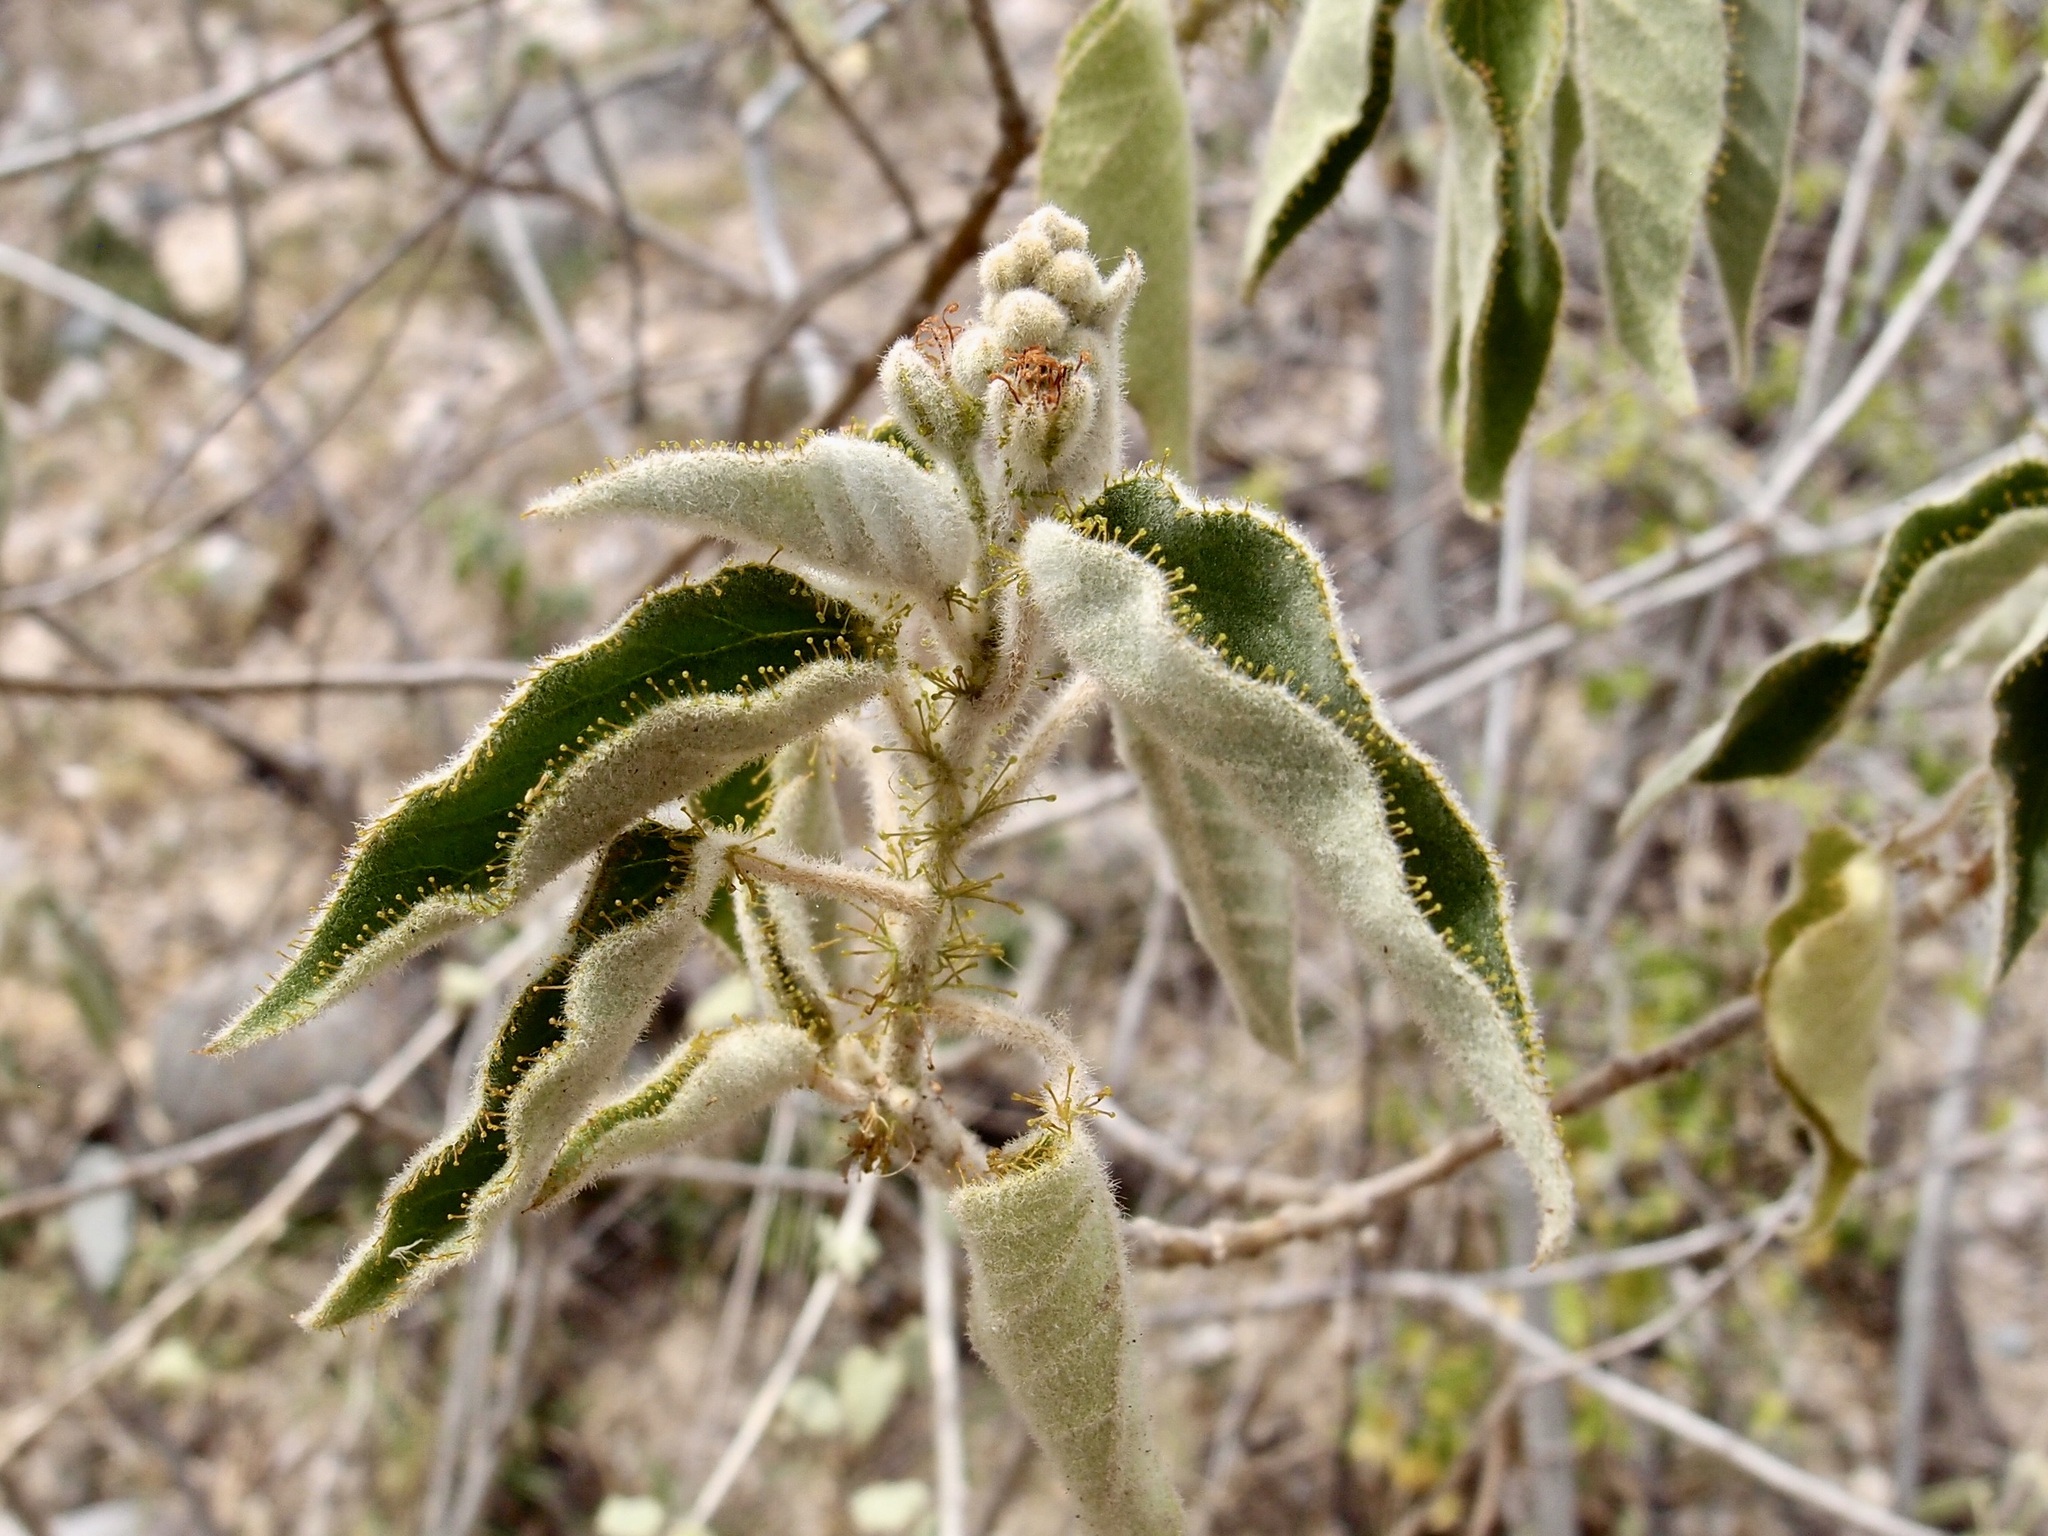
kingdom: Plantae
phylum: Tracheophyta
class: Magnoliopsida
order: Malpighiales
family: Euphorbiaceae
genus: Croton
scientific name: Croton ciliatoglandulifer
